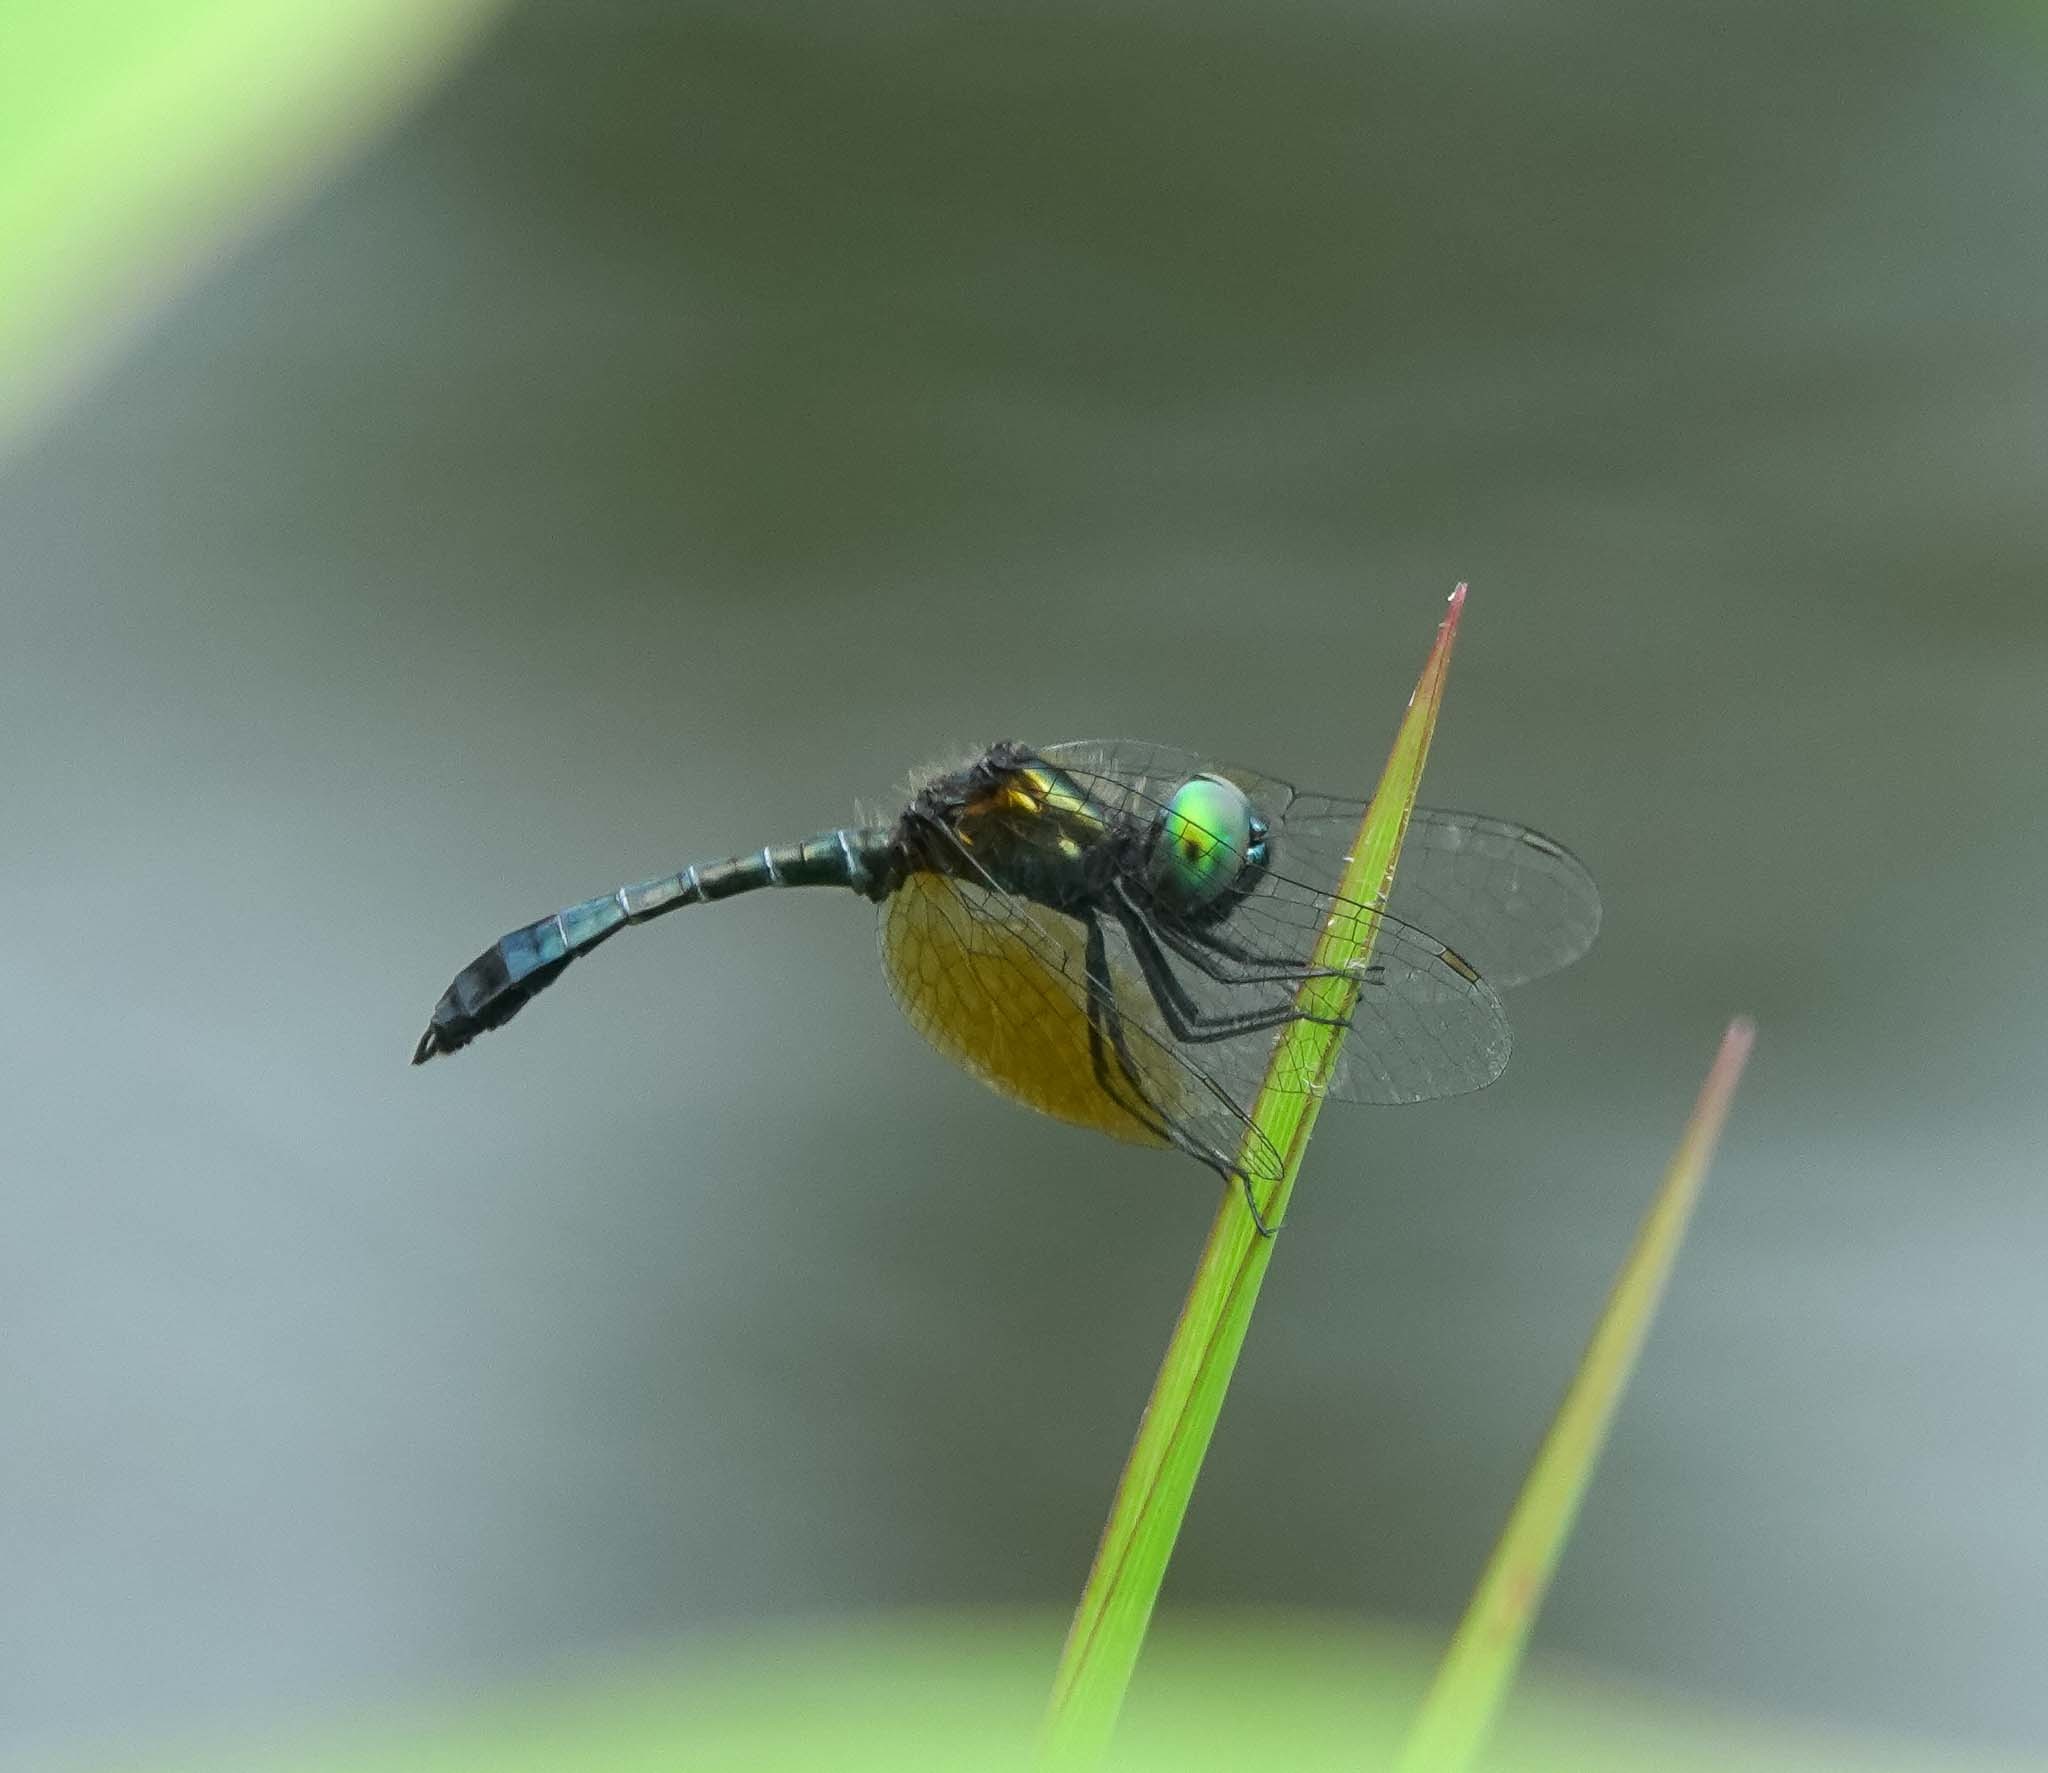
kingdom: Animalia
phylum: Arthropoda
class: Insecta
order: Odonata
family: Libellulidae
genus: Nannophyopsis
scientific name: Nannophyopsis clara
